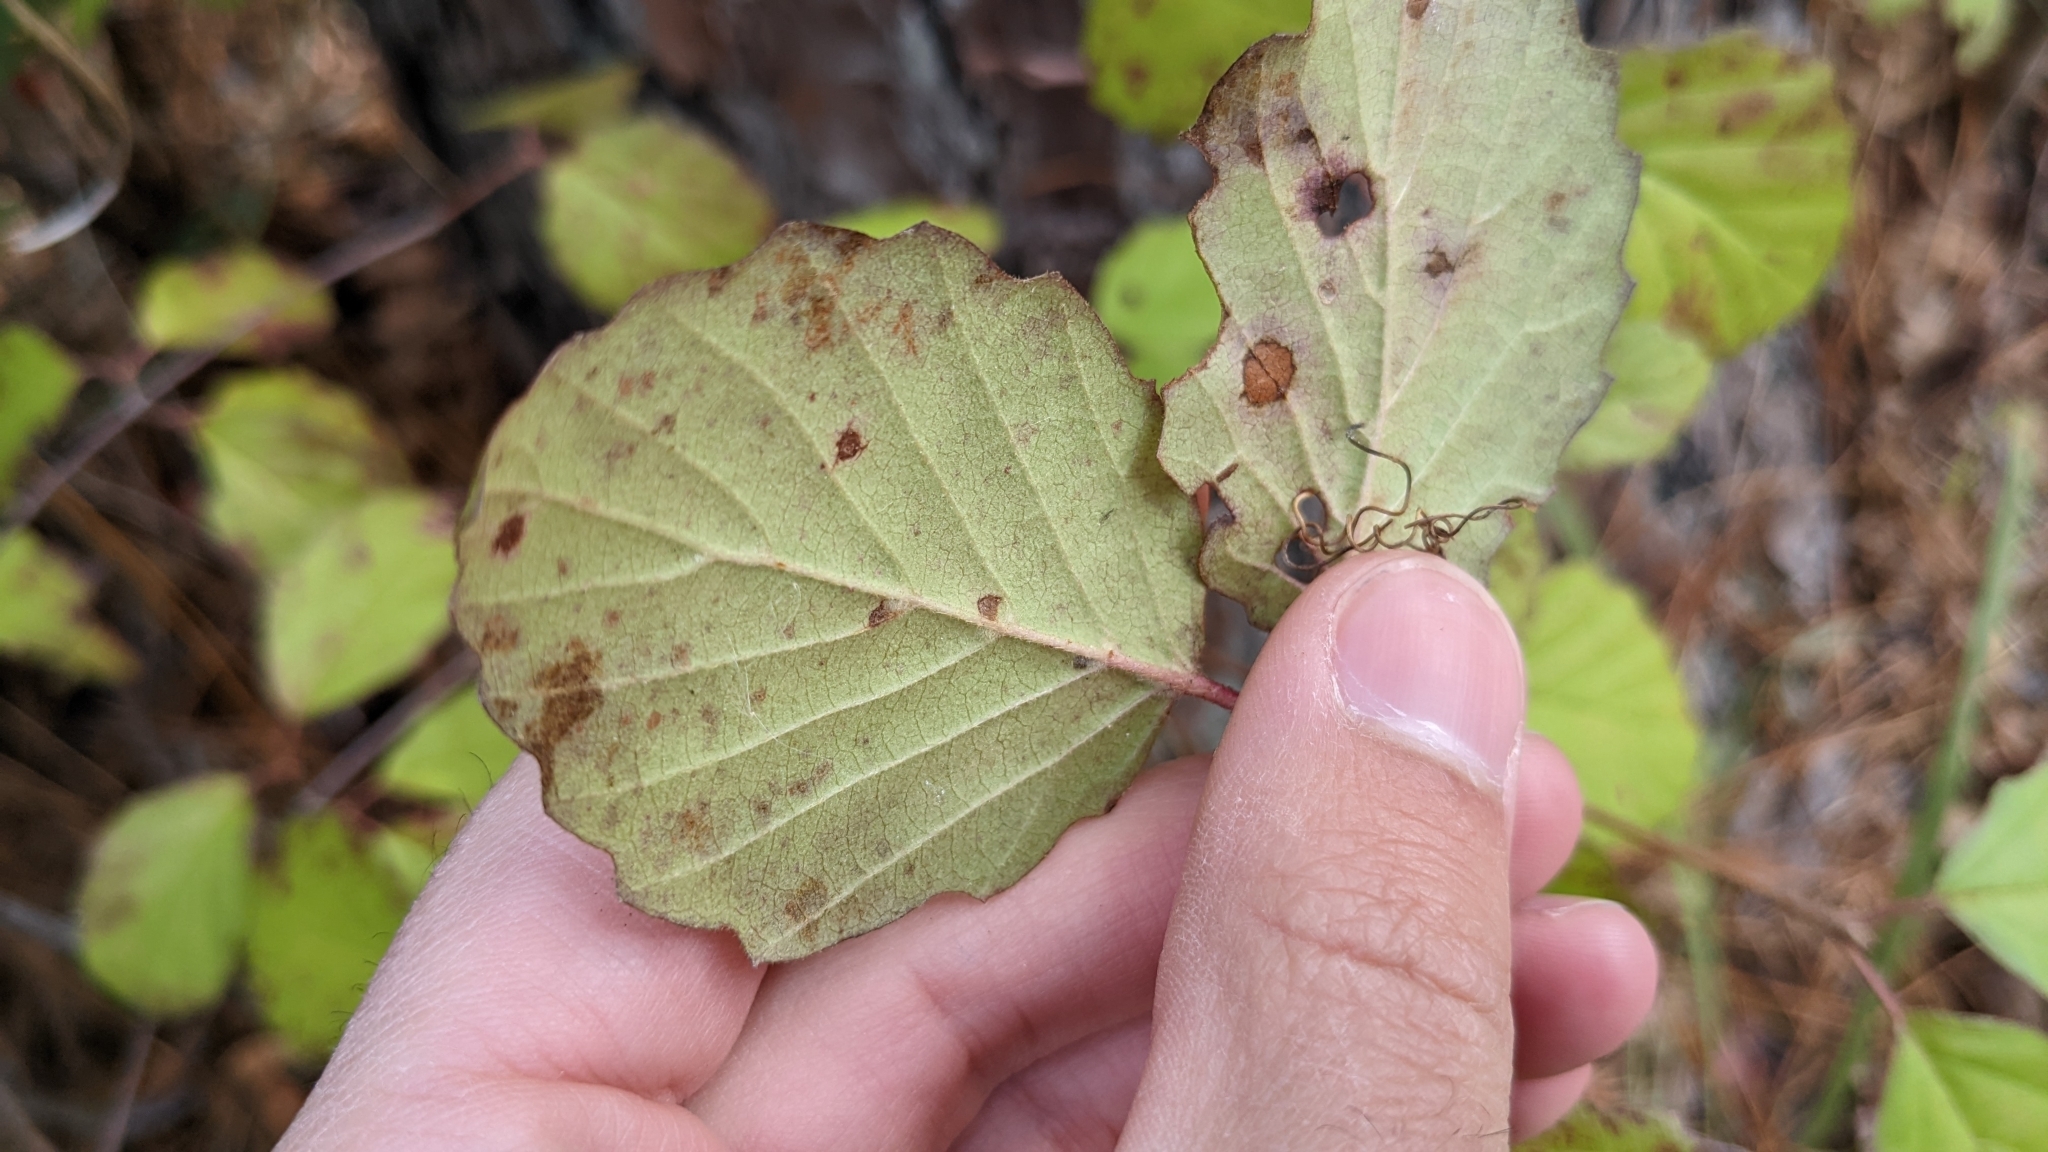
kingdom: Plantae
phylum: Tracheophyta
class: Magnoliopsida
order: Dipsacales
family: Viburnaceae
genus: Viburnum
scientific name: Viburnum scabrellum
